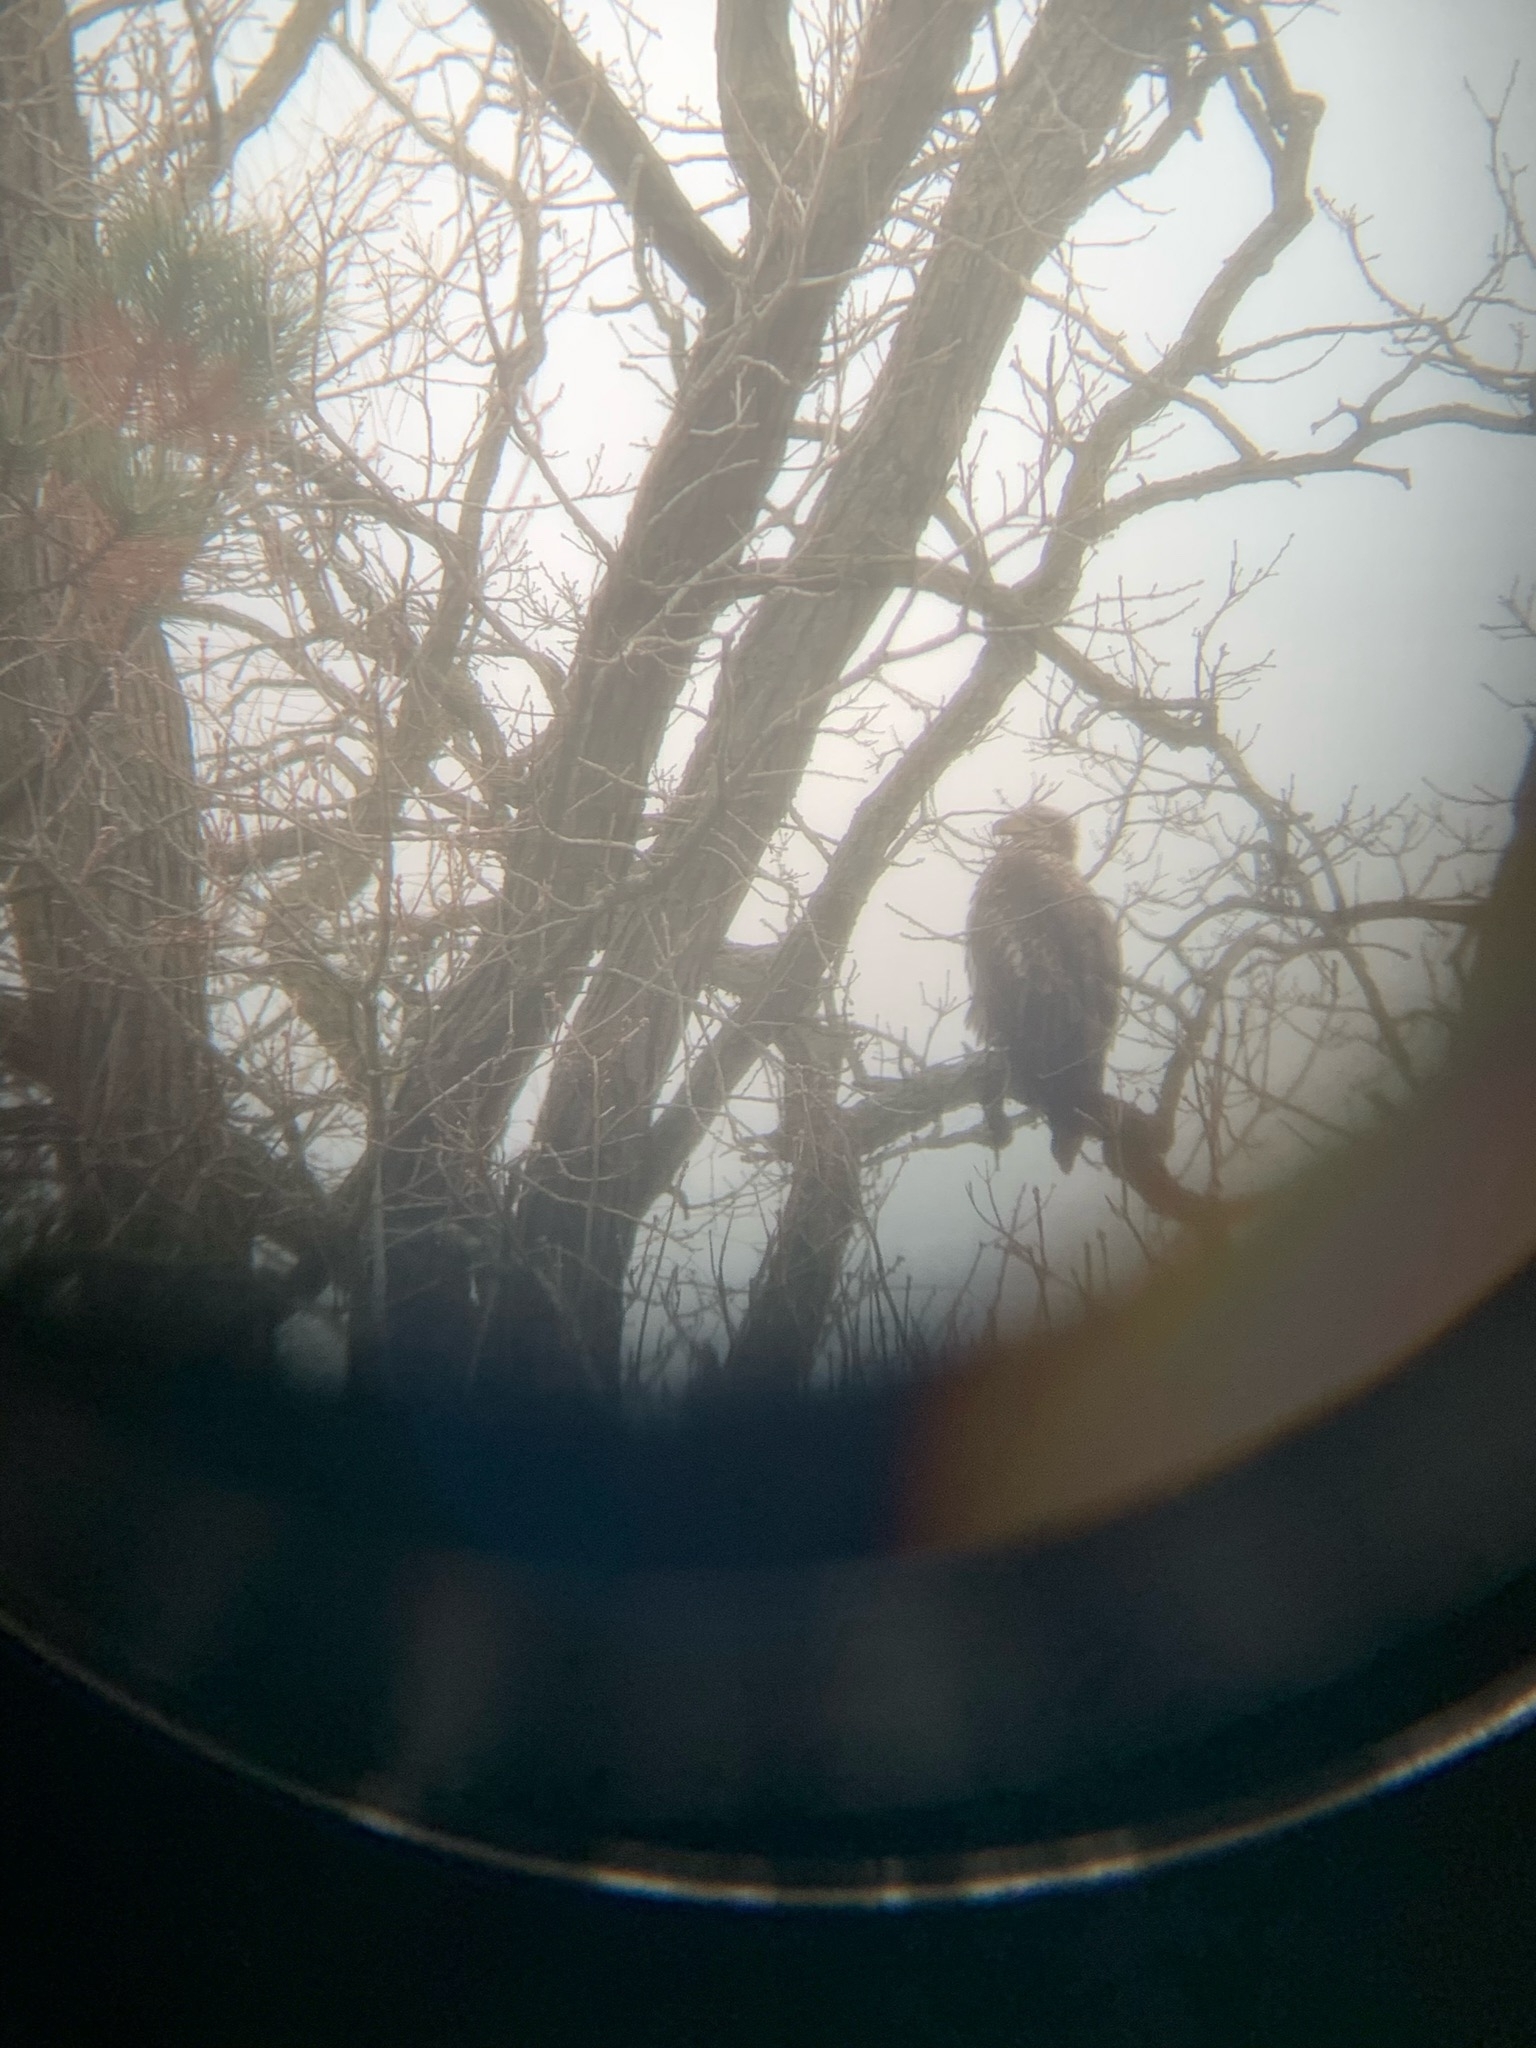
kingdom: Animalia
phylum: Chordata
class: Aves
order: Accipitriformes
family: Accipitridae
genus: Haliaeetus
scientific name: Haliaeetus leucocephalus
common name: Bald eagle
